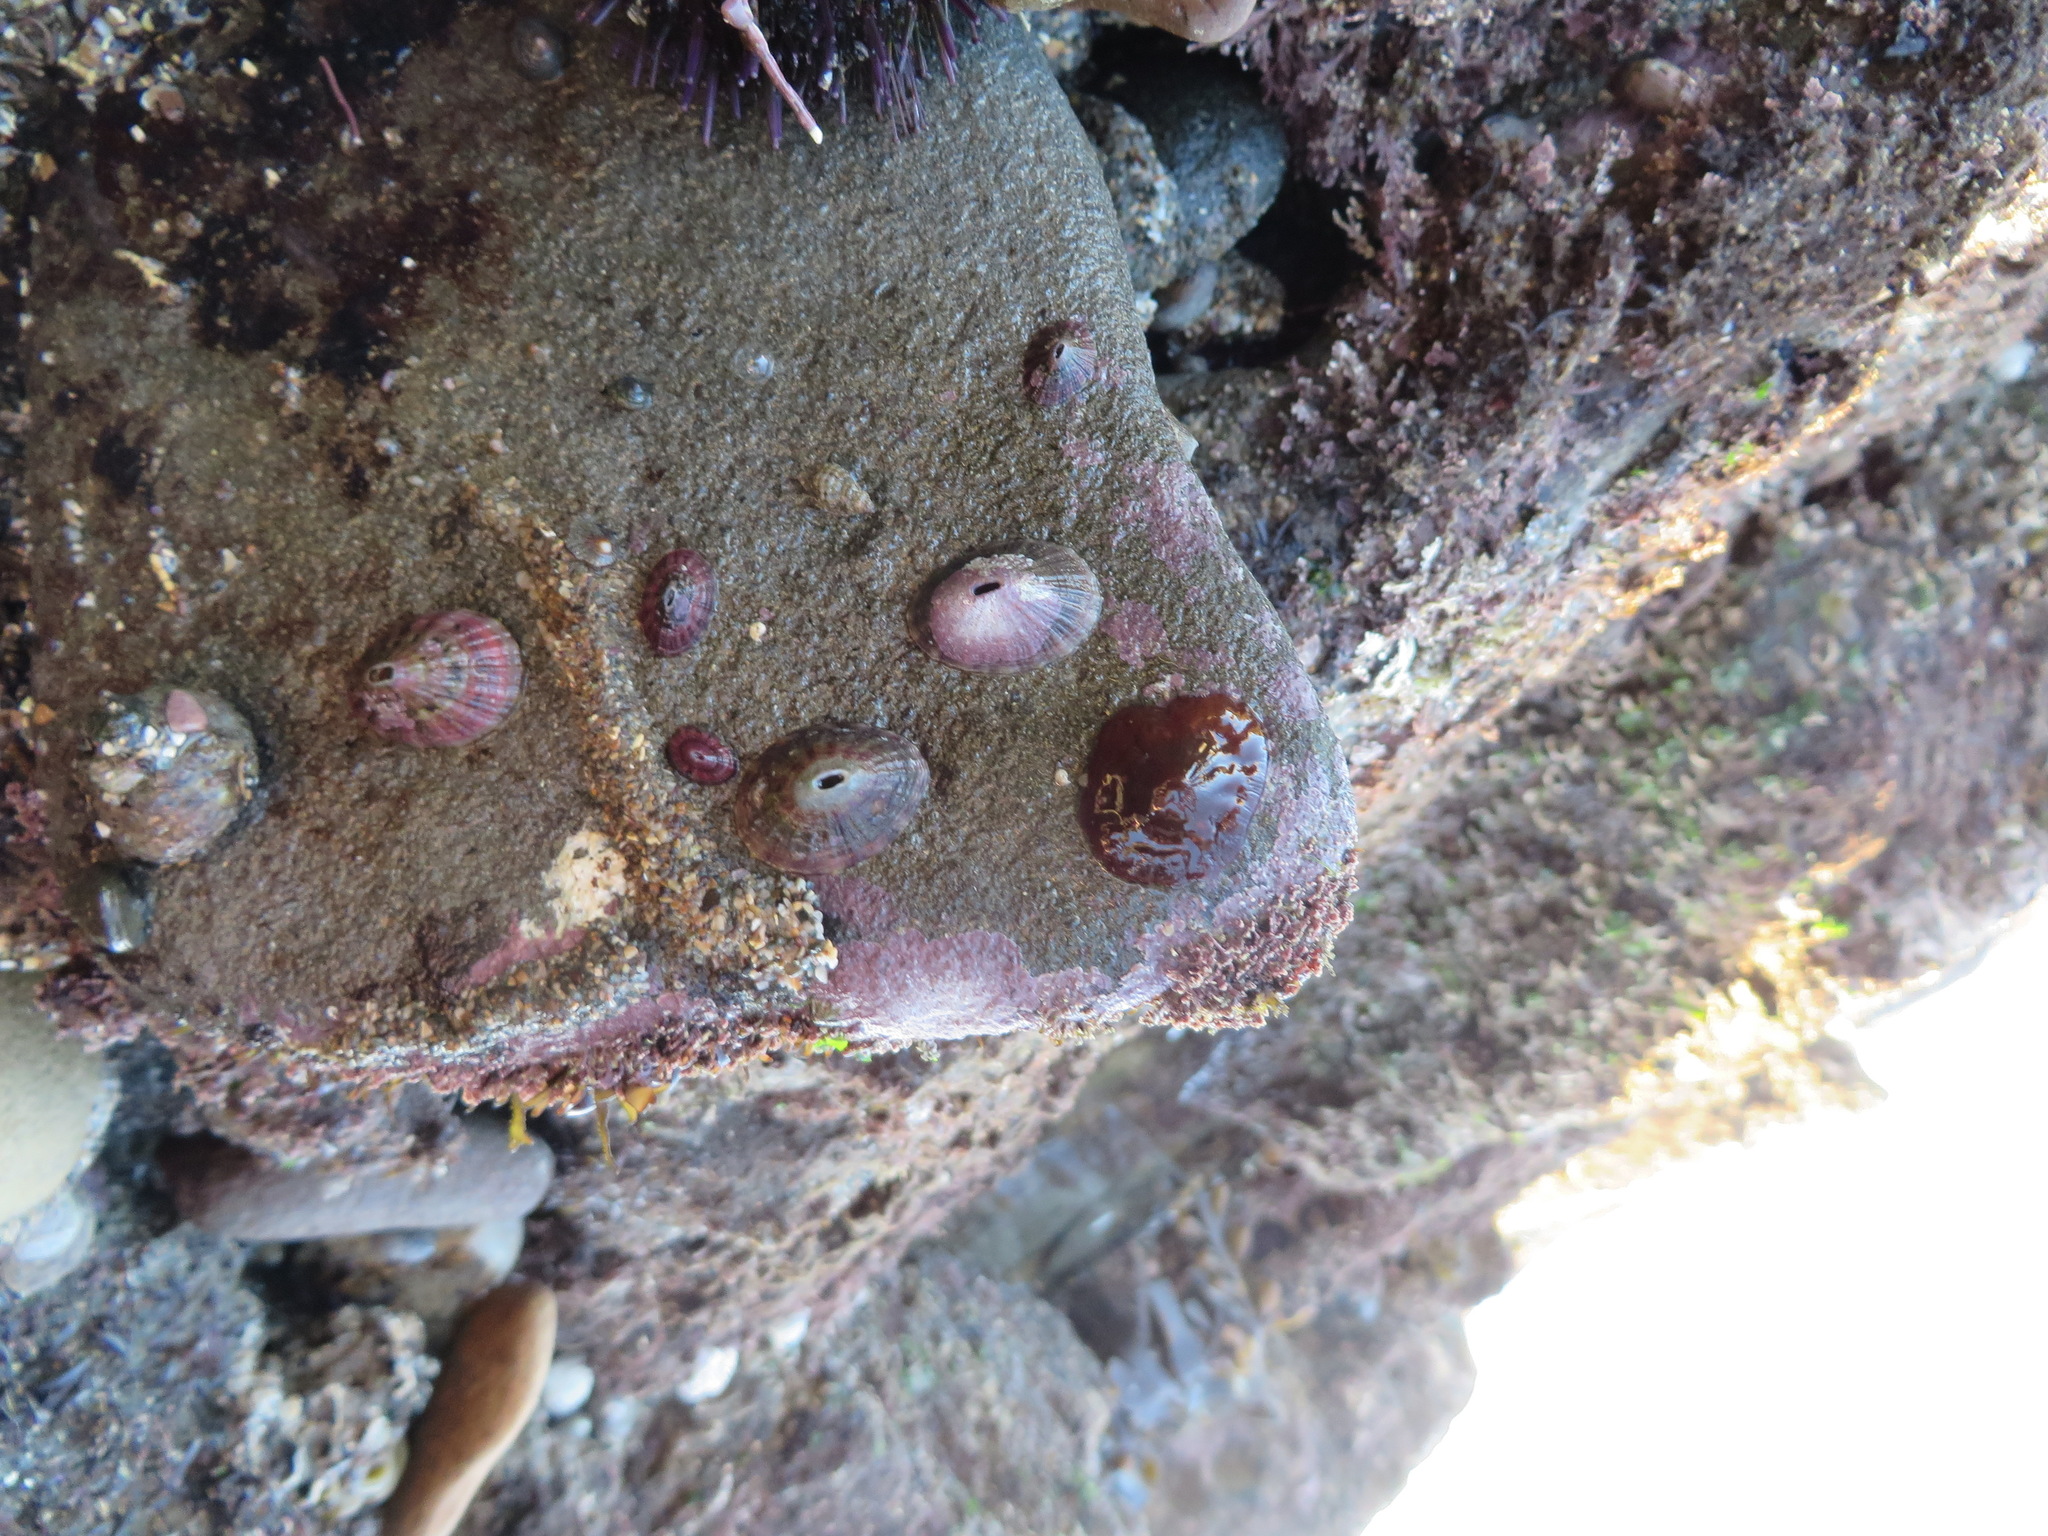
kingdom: Animalia
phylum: Mollusca
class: Gastropoda
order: Lepetellida
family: Fissurellidae
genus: Fissurella
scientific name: Fissurella volcano
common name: Volcano keyhole limpet
